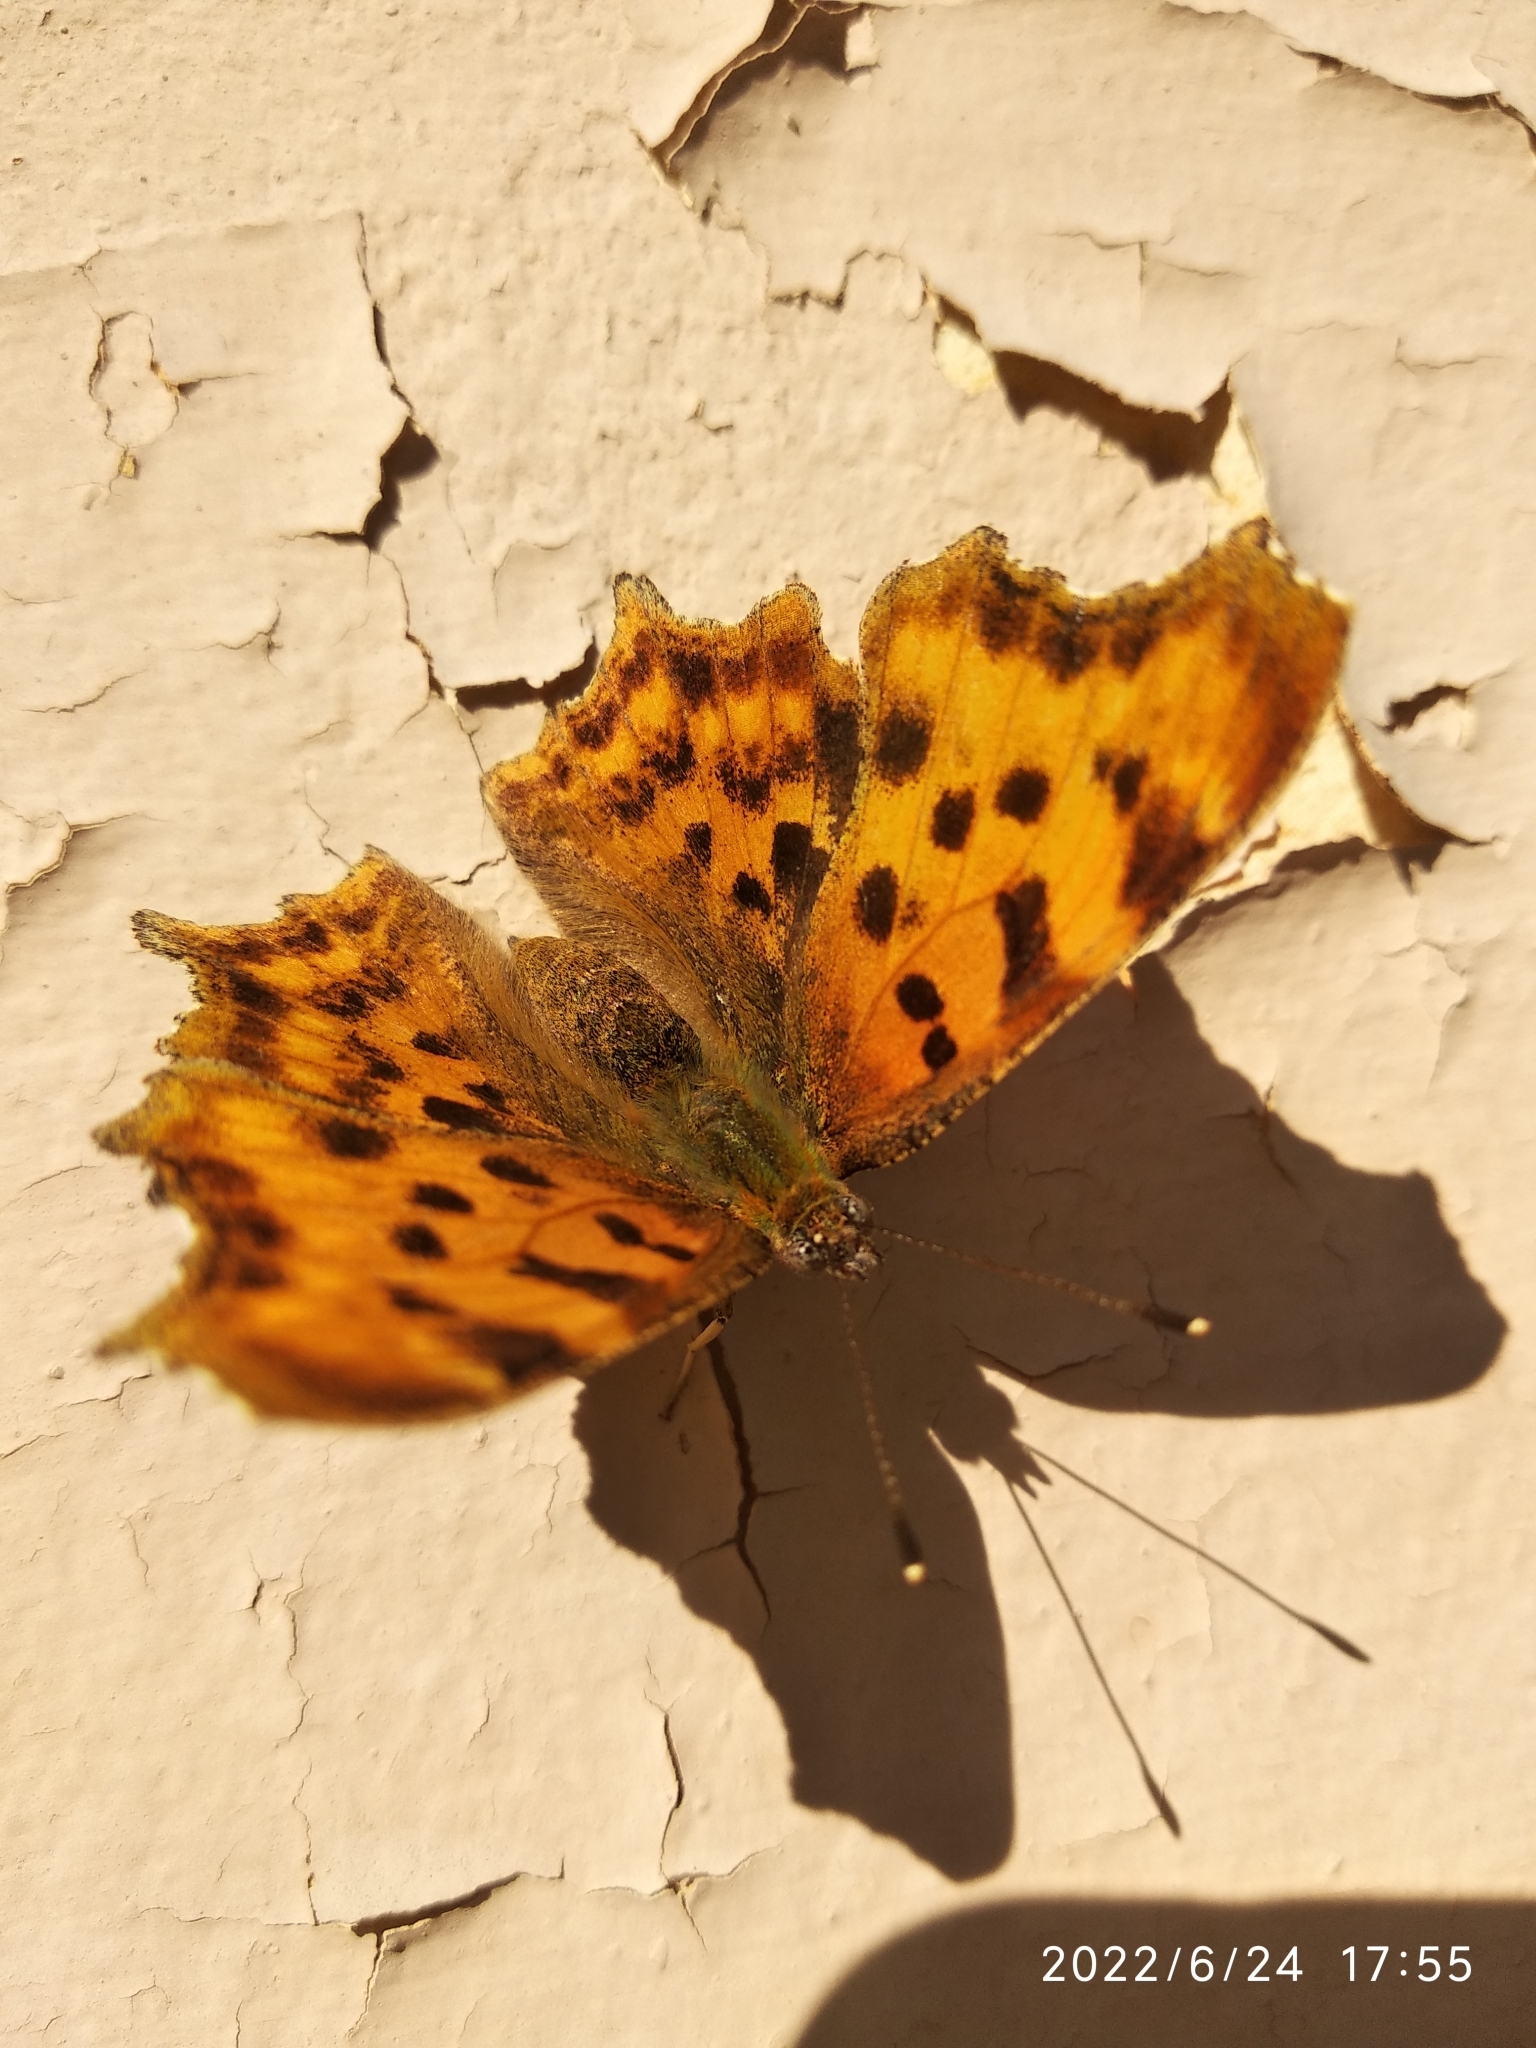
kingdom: Animalia
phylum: Arthropoda
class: Insecta
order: Lepidoptera
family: Nymphalidae
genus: Polygonia
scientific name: Polygonia c-album
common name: Comma
